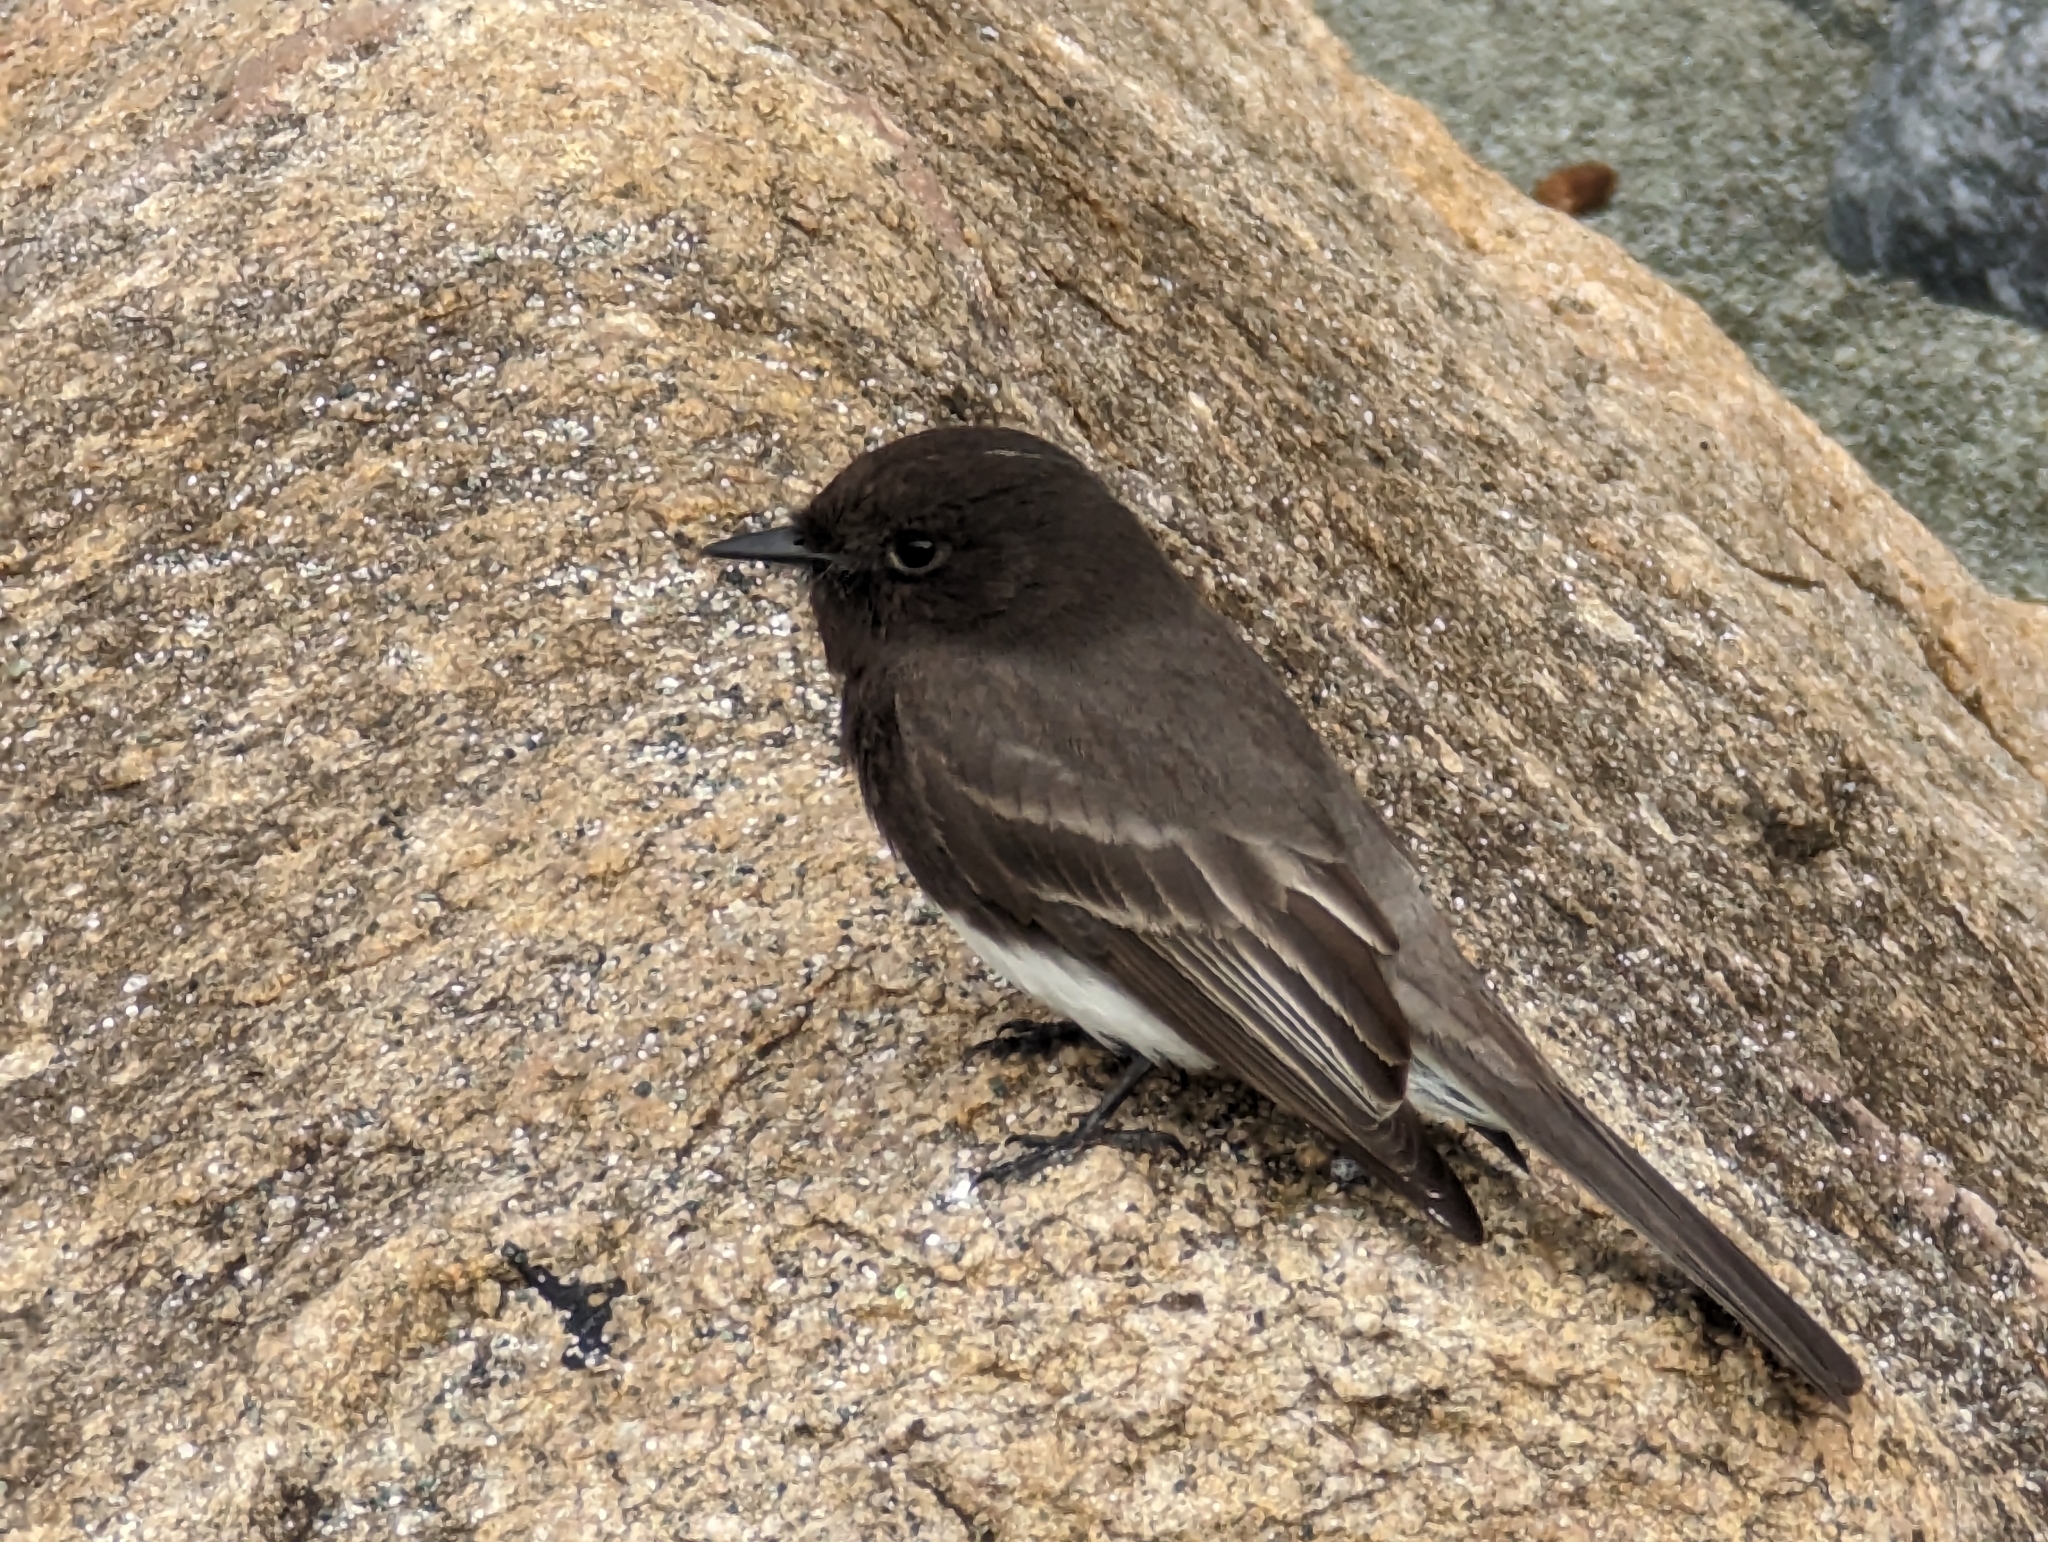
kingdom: Animalia
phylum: Chordata
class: Aves
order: Passeriformes
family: Tyrannidae
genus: Sayornis
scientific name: Sayornis nigricans
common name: Black phoebe
